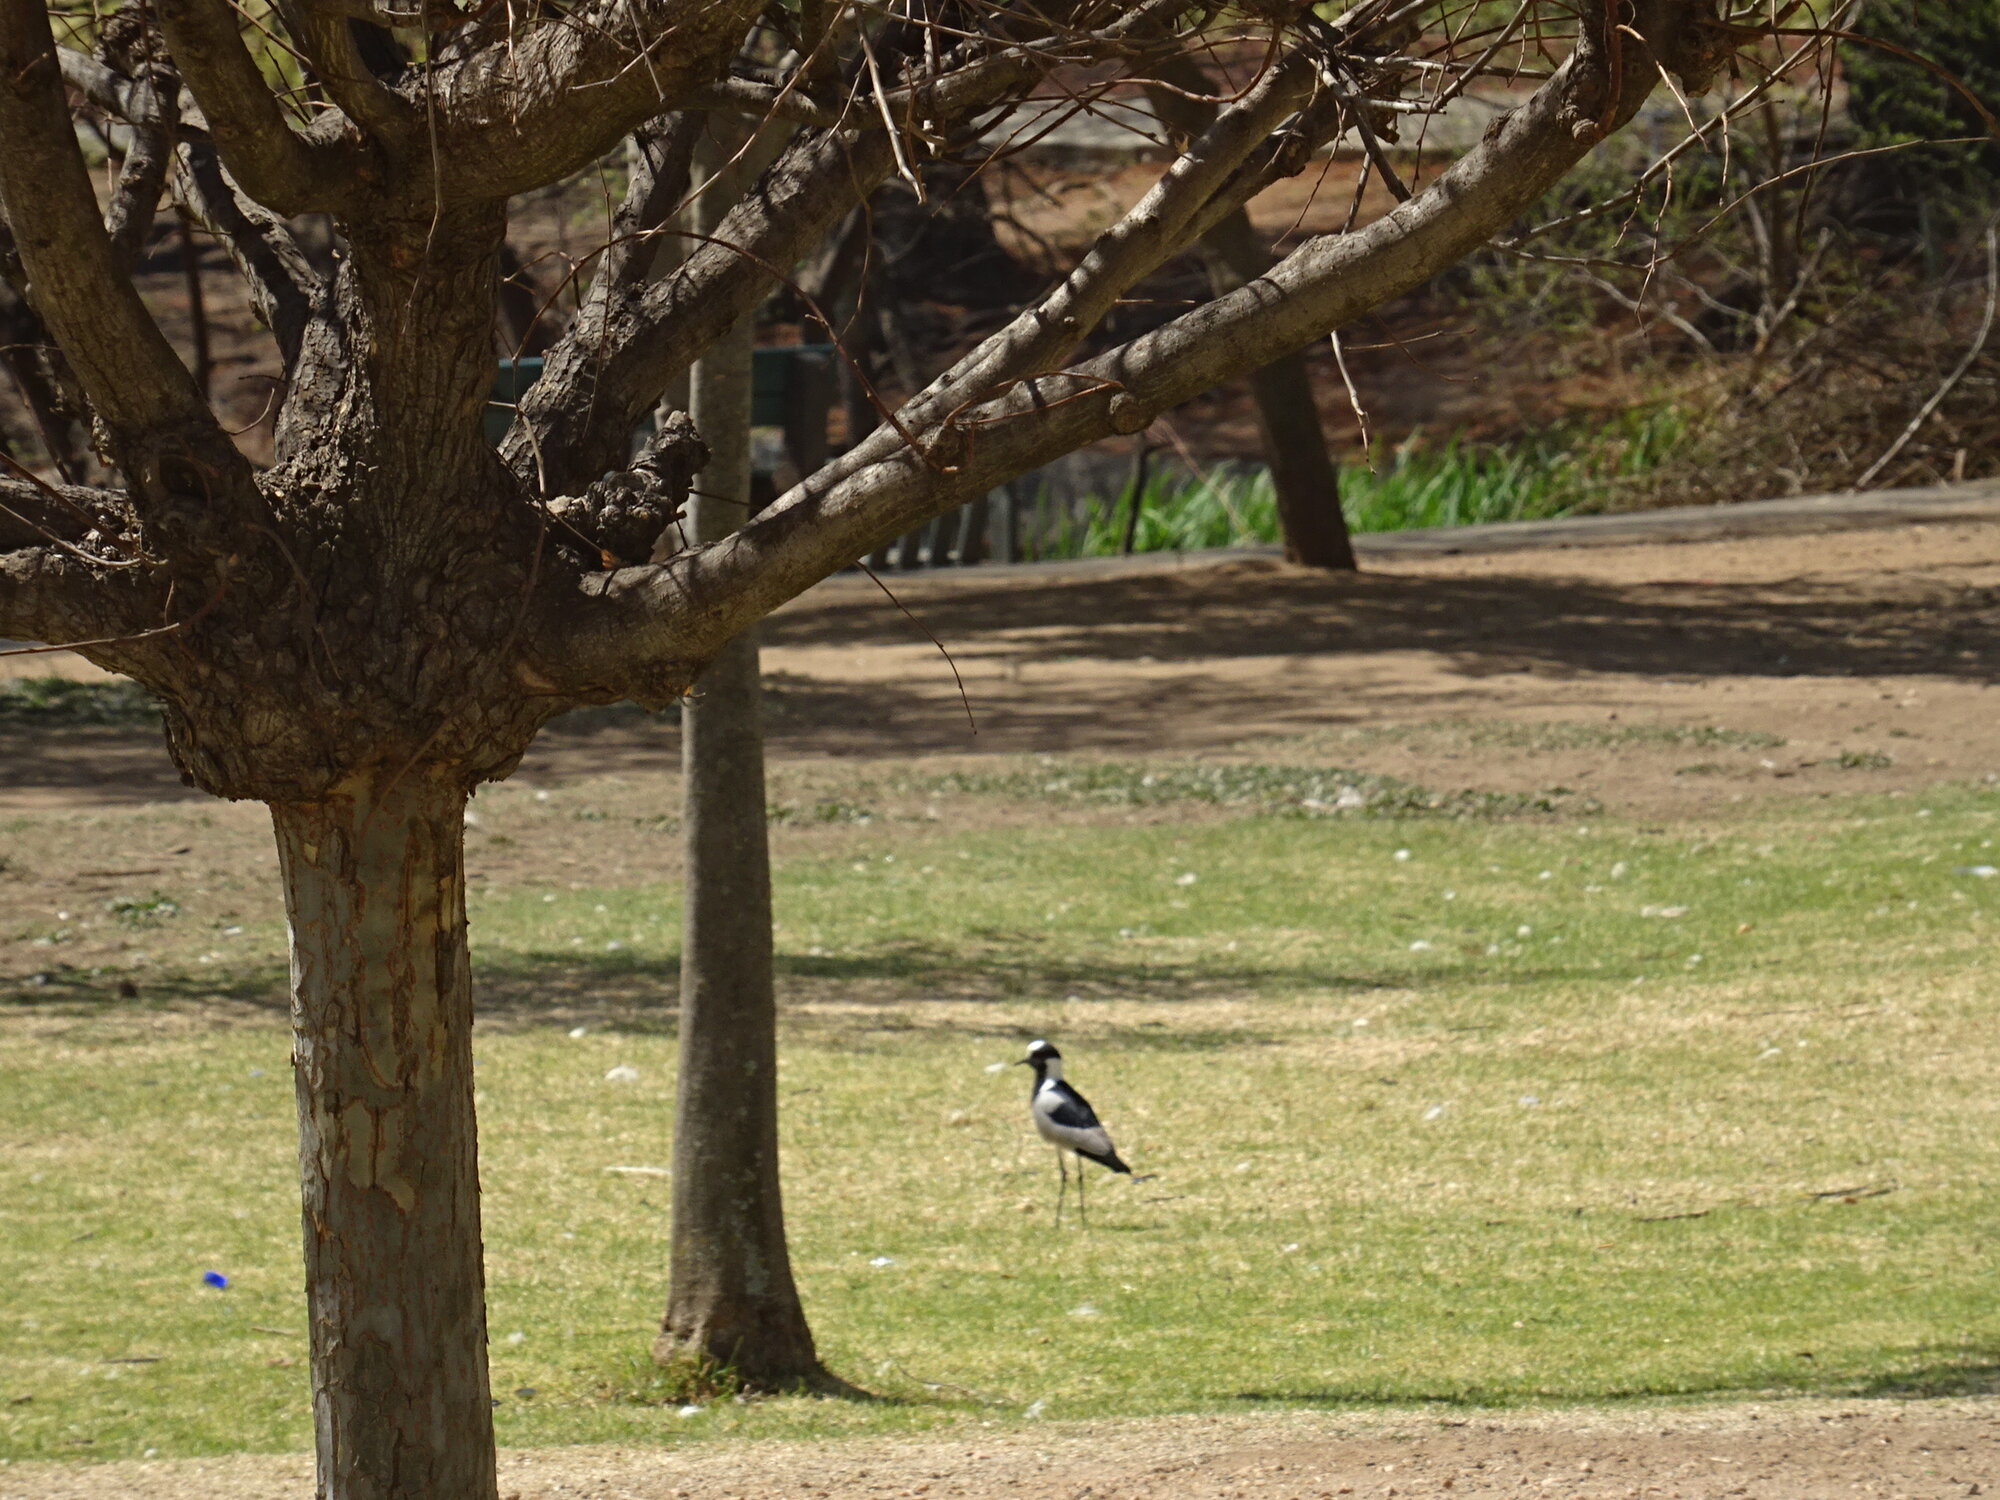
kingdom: Animalia
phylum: Chordata
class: Aves
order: Charadriiformes
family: Charadriidae
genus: Vanellus
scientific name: Vanellus armatus
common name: Blacksmith lapwing
